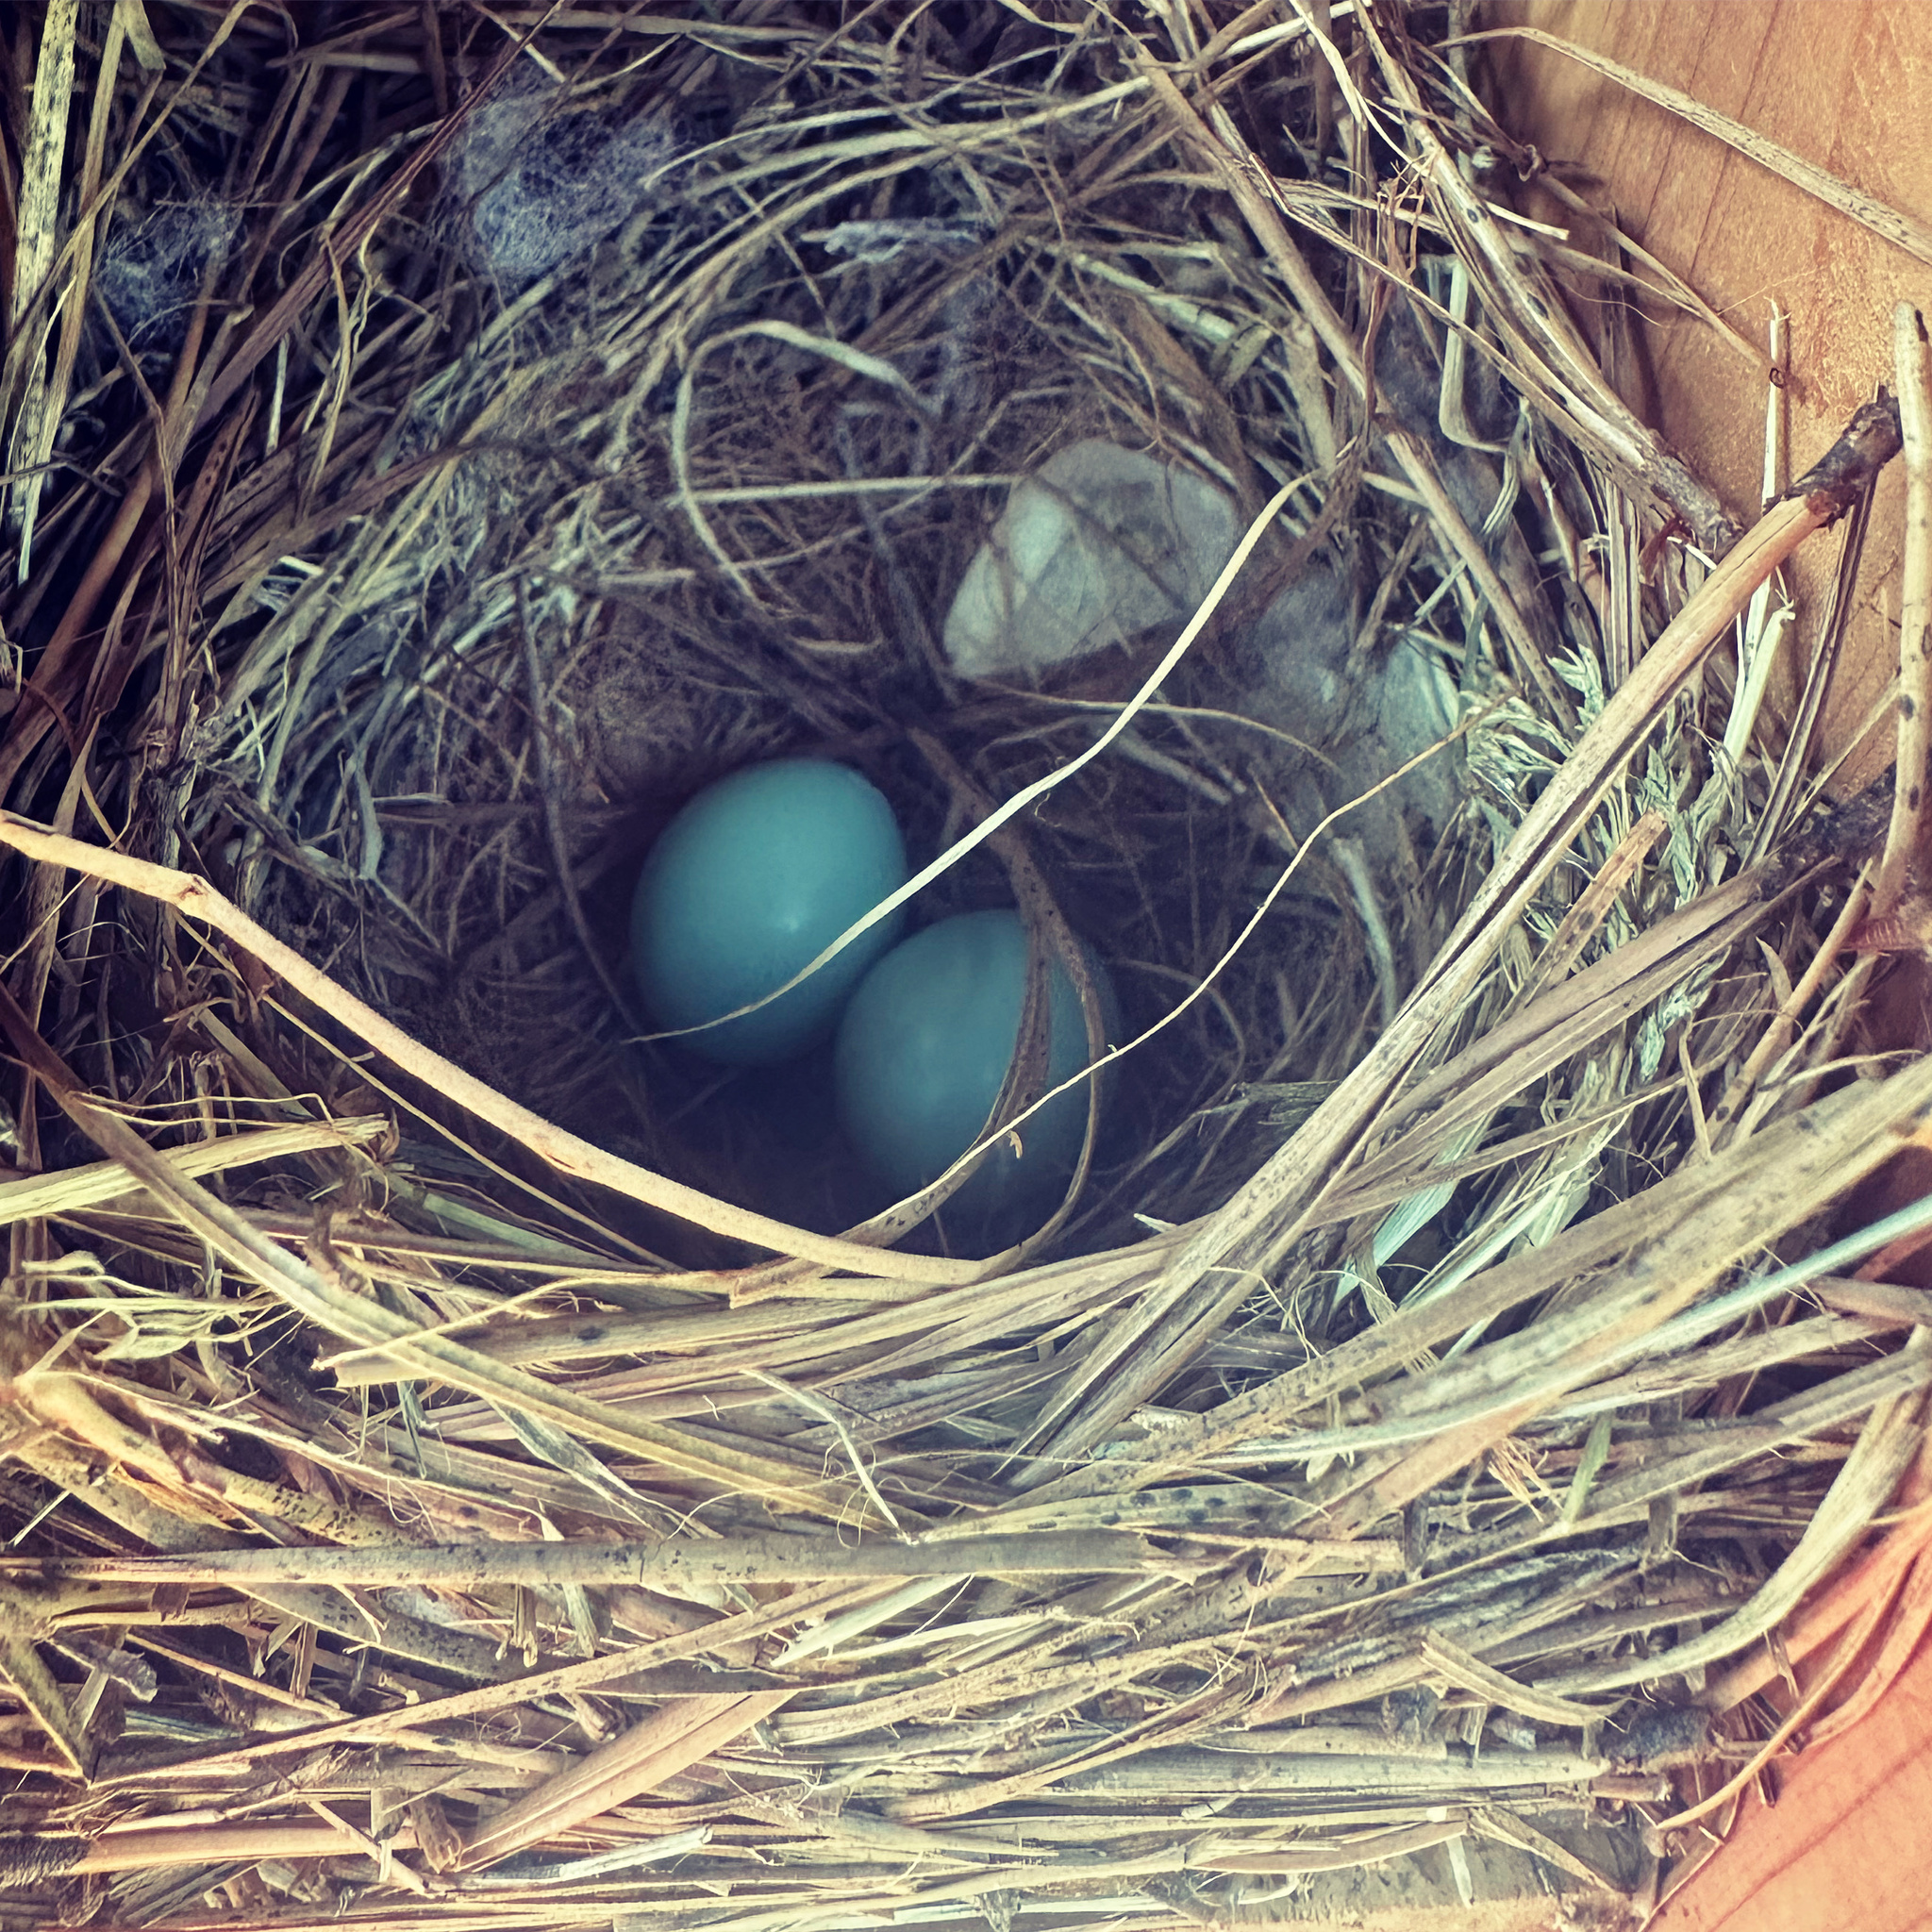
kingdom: Animalia
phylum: Chordata
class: Aves
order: Passeriformes
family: Turdidae
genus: Sialia
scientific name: Sialia sialis
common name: Eastern bluebird
